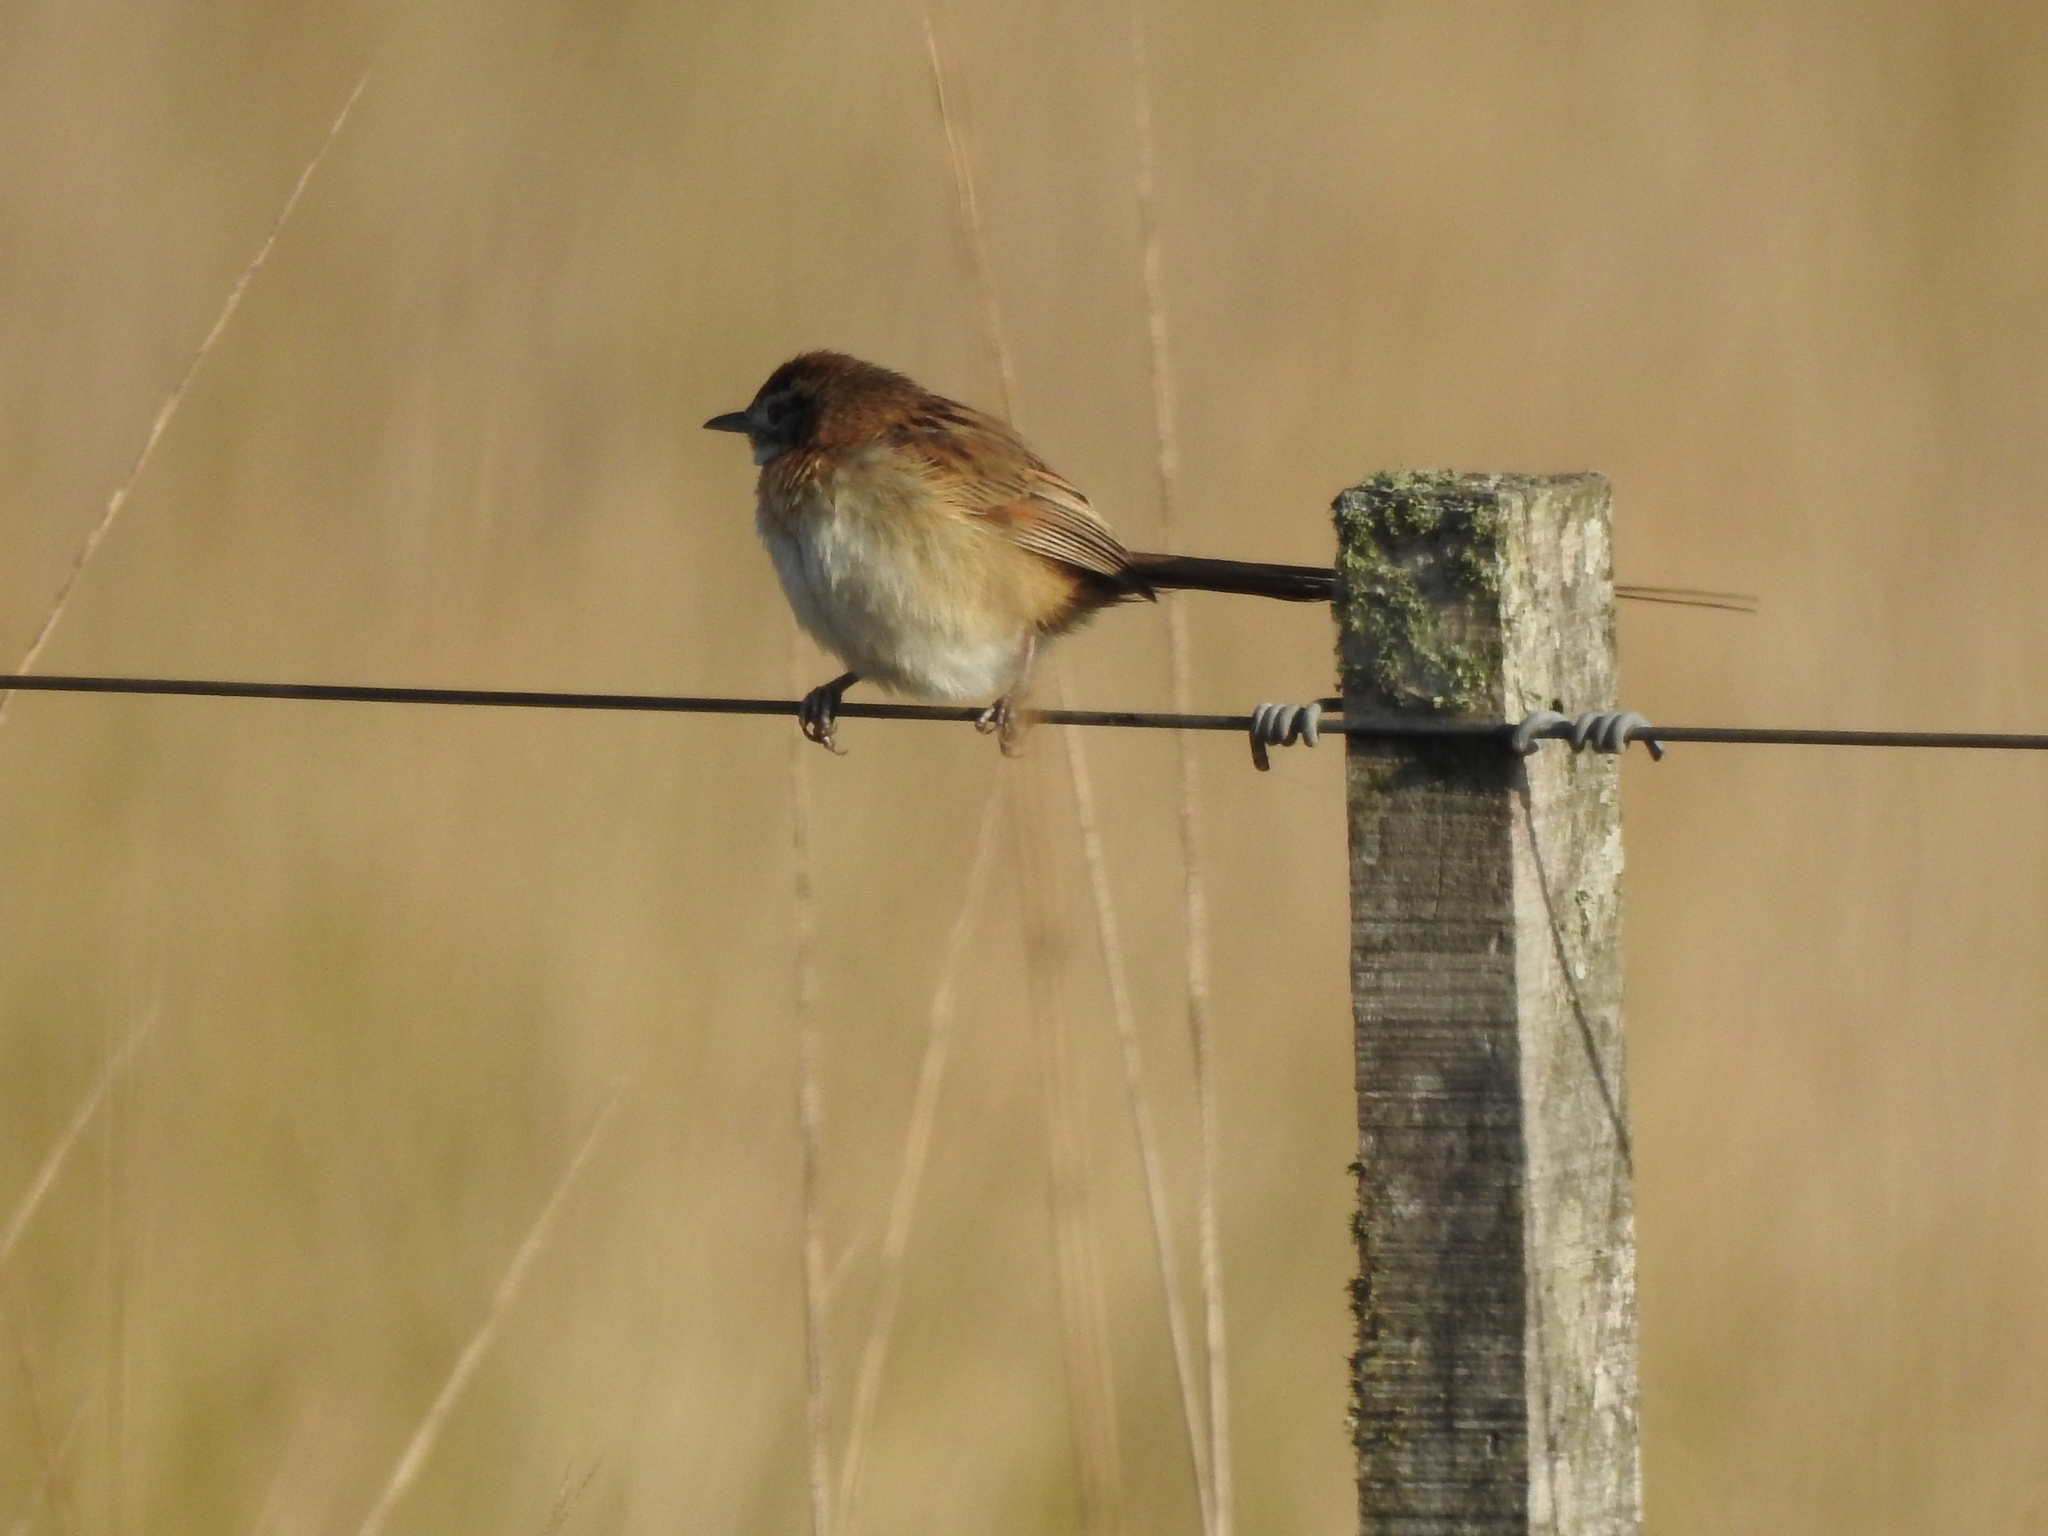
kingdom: Animalia
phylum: Chordata
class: Aves
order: Passeriformes
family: Furnariidae
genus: Schoeniophylax
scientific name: Schoeniophylax phryganophilus
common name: Chotoy spinetail
